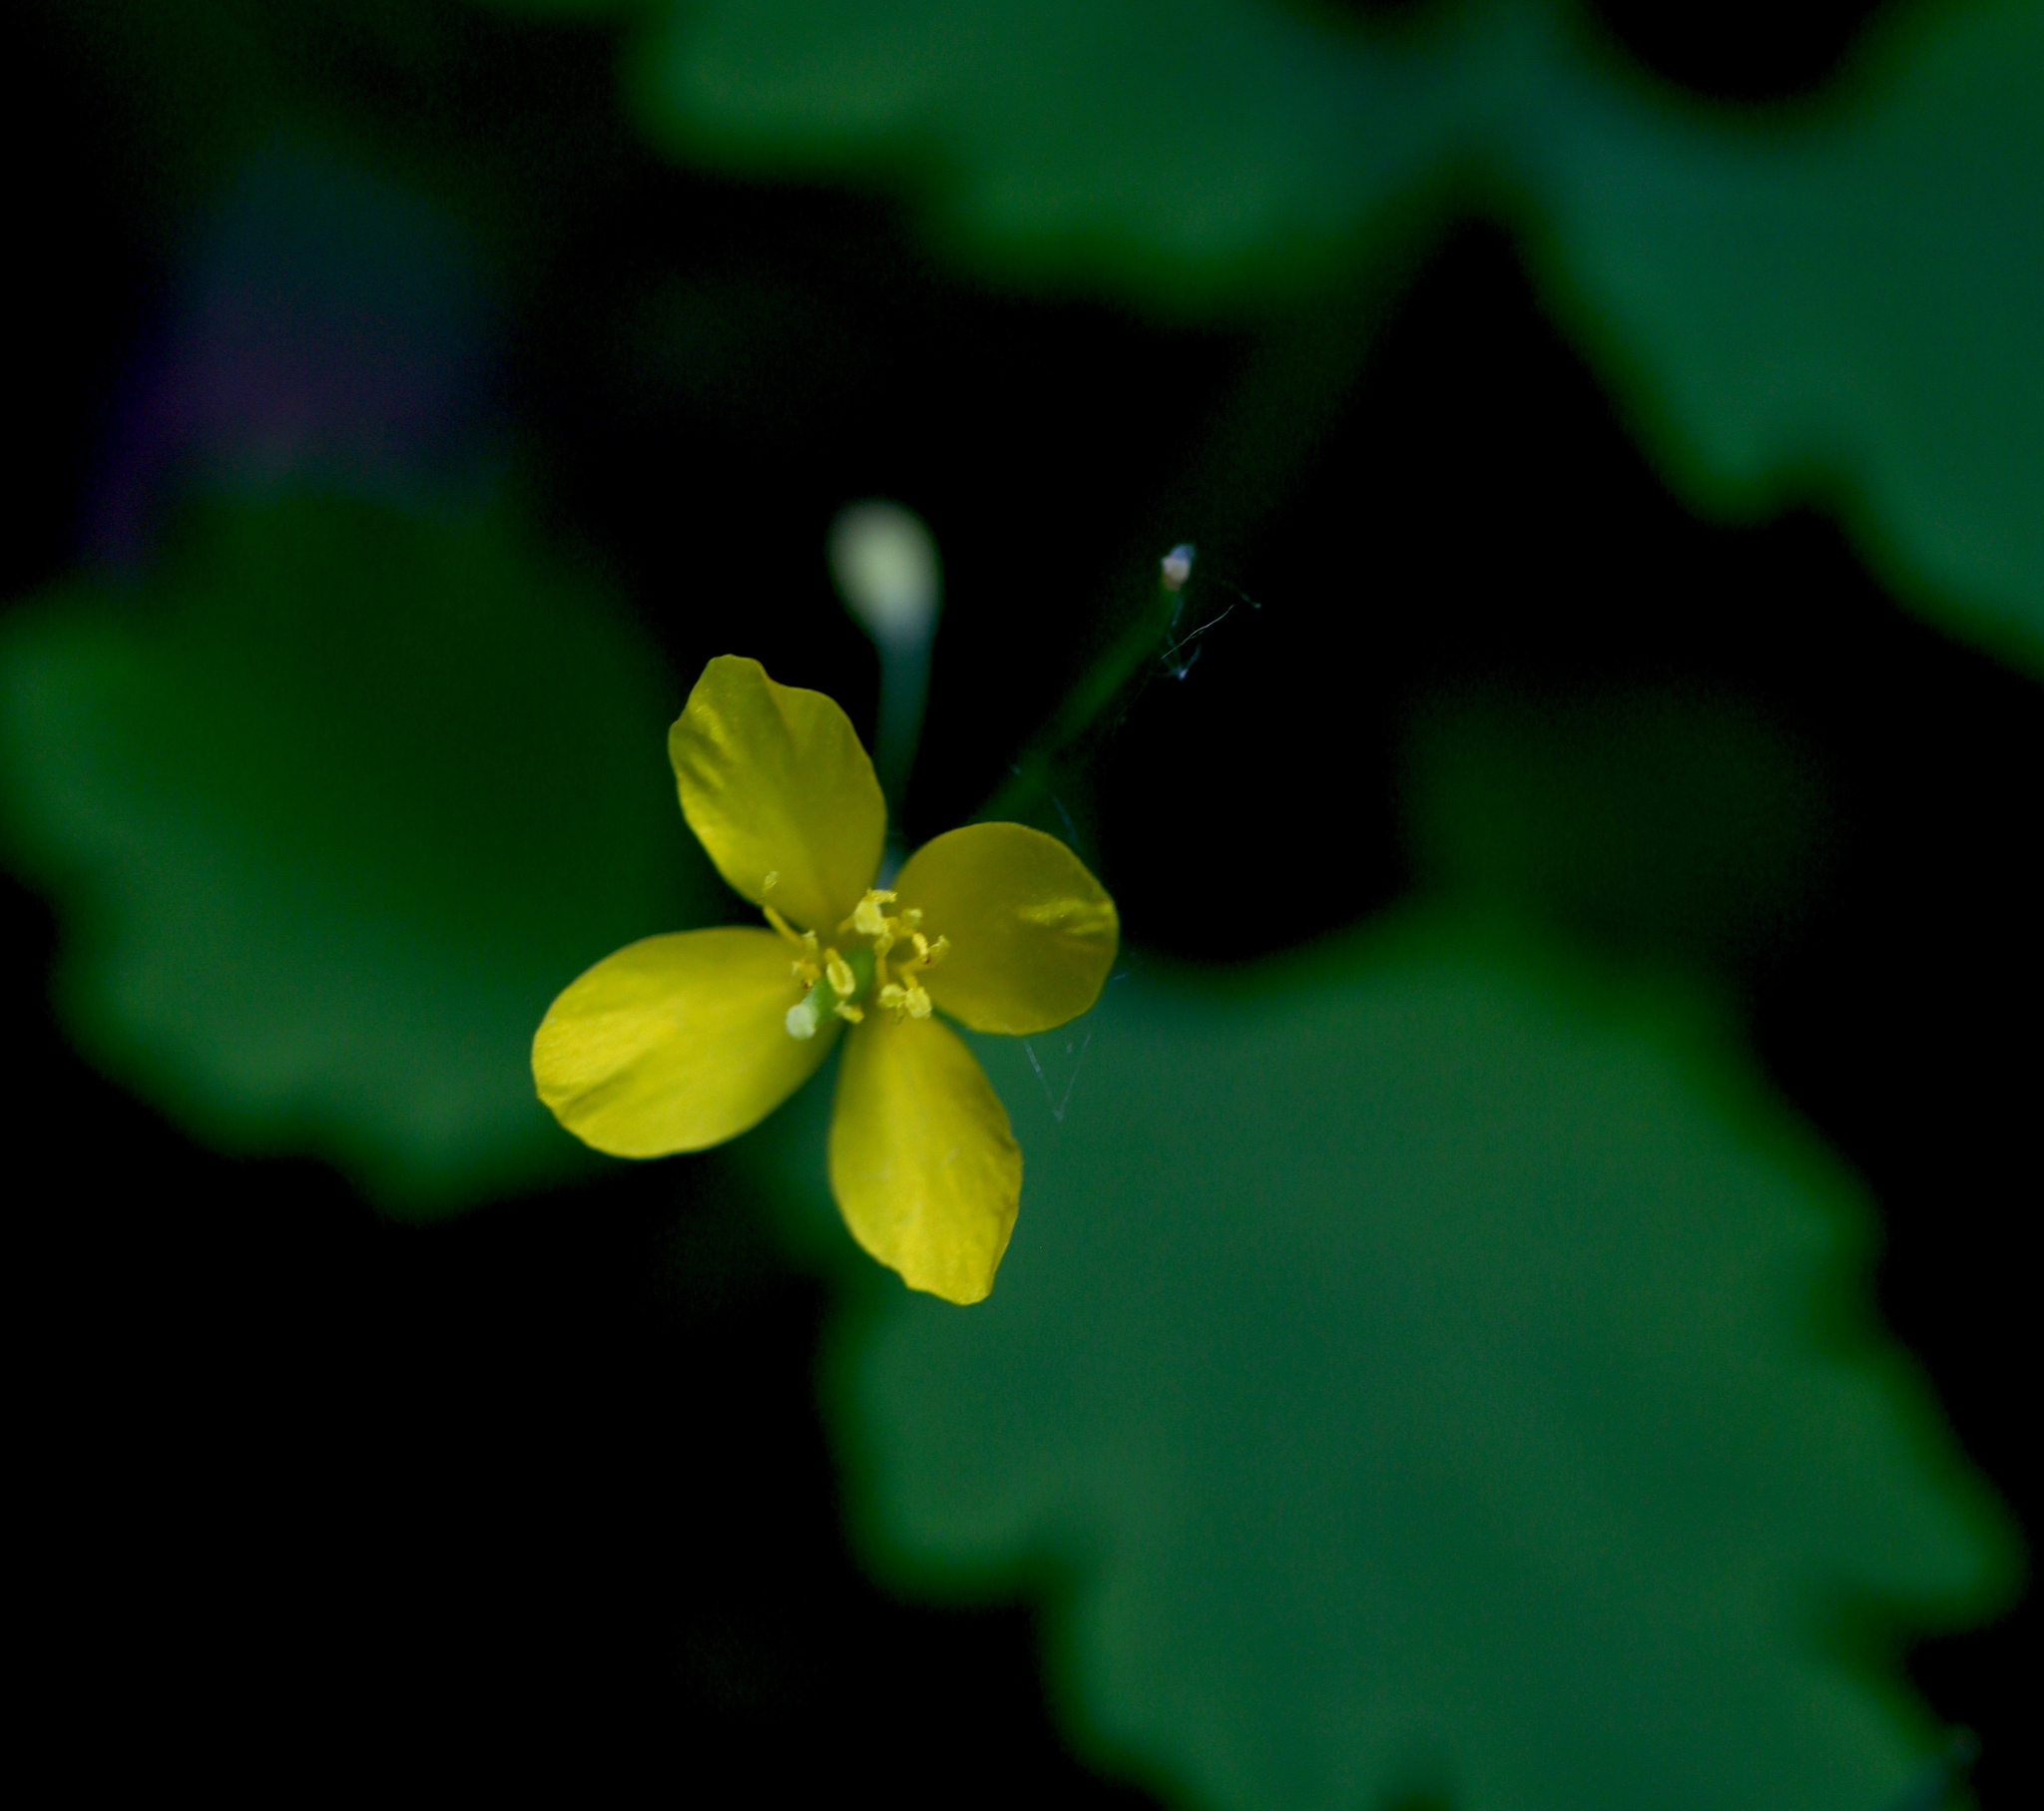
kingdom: Plantae
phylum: Tracheophyta
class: Magnoliopsida
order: Ranunculales
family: Papaveraceae
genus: Chelidonium
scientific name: Chelidonium majus
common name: Greater celandine
